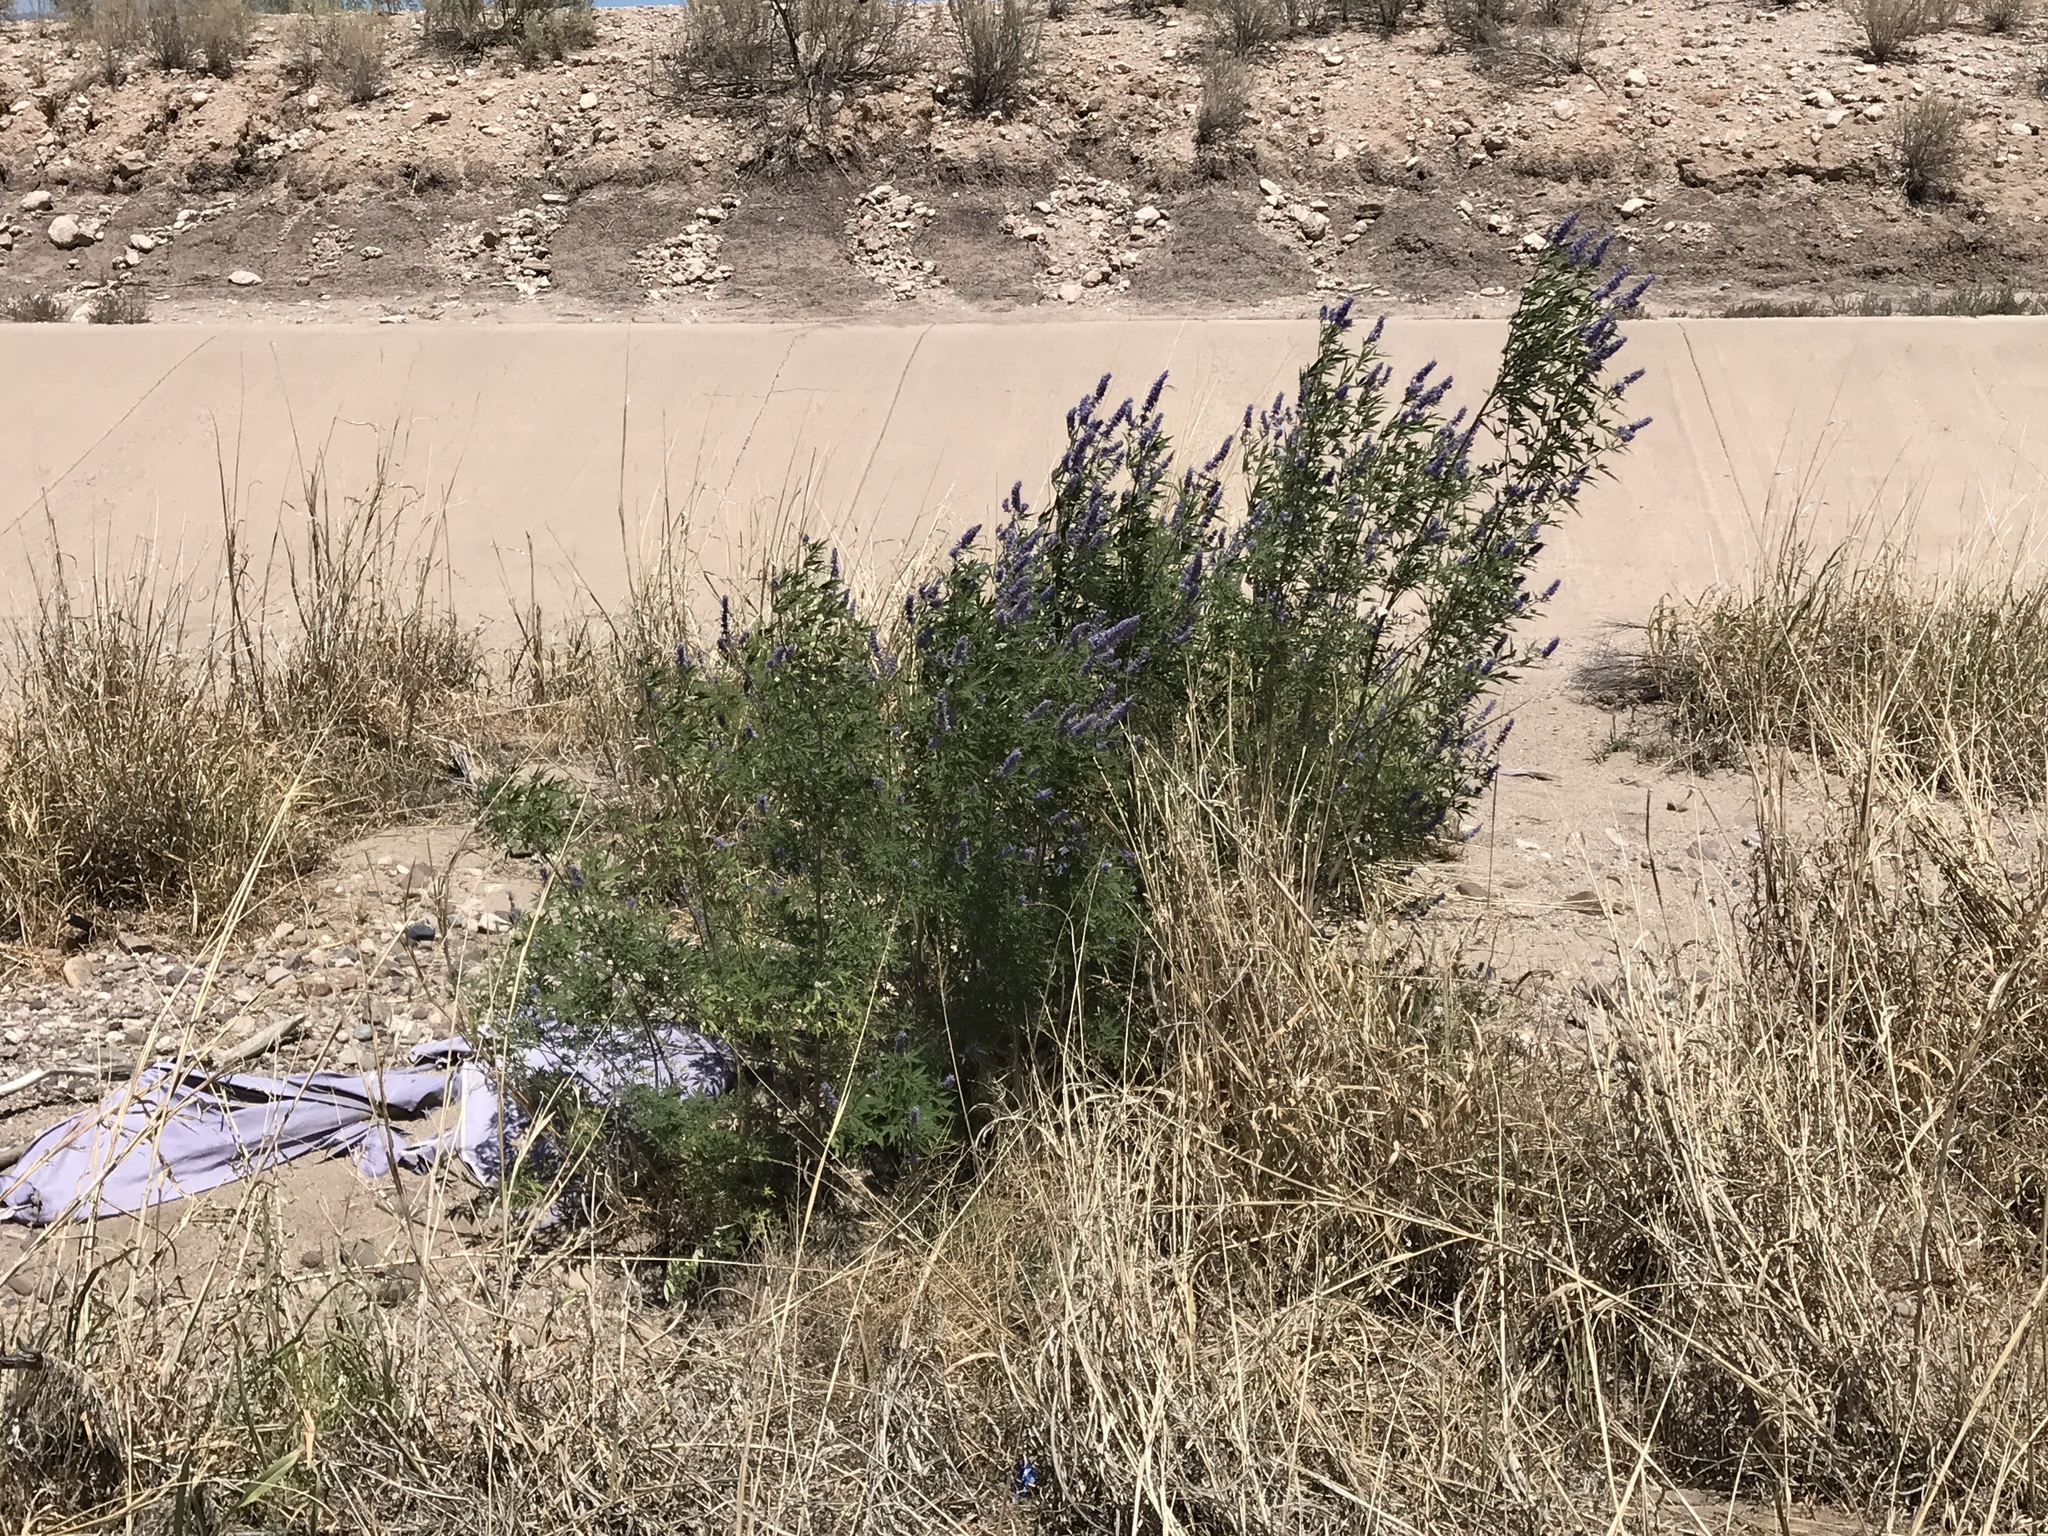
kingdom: Plantae
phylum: Tracheophyta
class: Magnoliopsida
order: Lamiales
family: Lamiaceae
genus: Vitex
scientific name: Vitex agnus-castus
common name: Chasteberry
